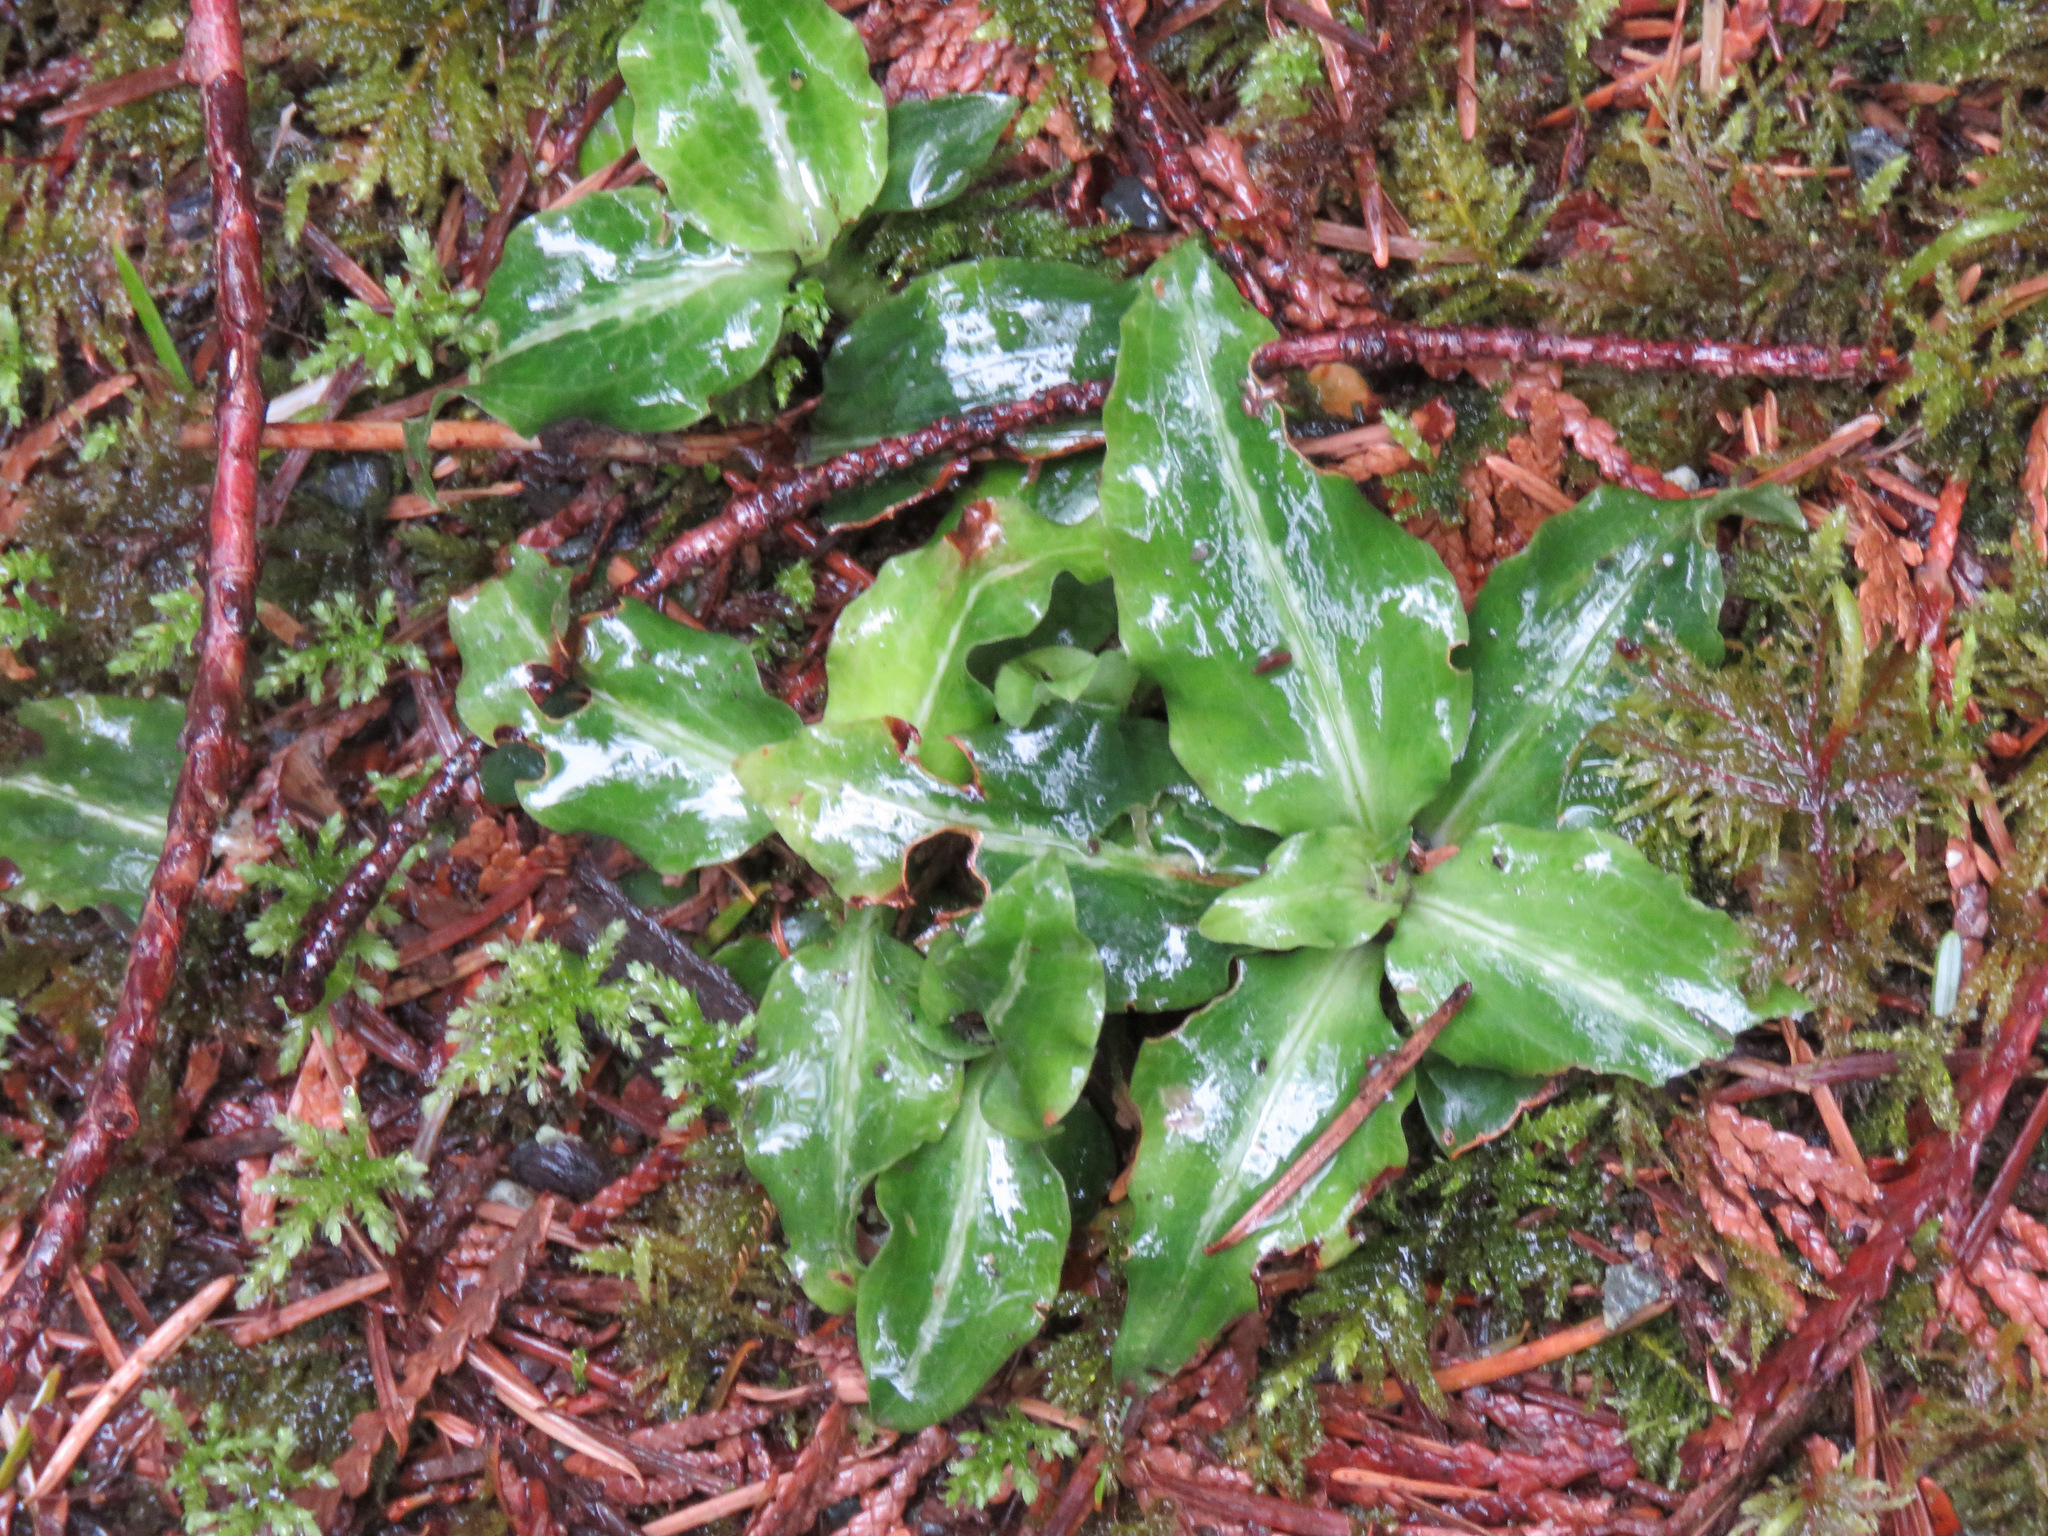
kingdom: Plantae
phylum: Tracheophyta
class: Liliopsida
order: Asparagales
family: Orchidaceae
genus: Goodyera
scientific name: Goodyera oblongifolia
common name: Giant rattlesnake-plantain
